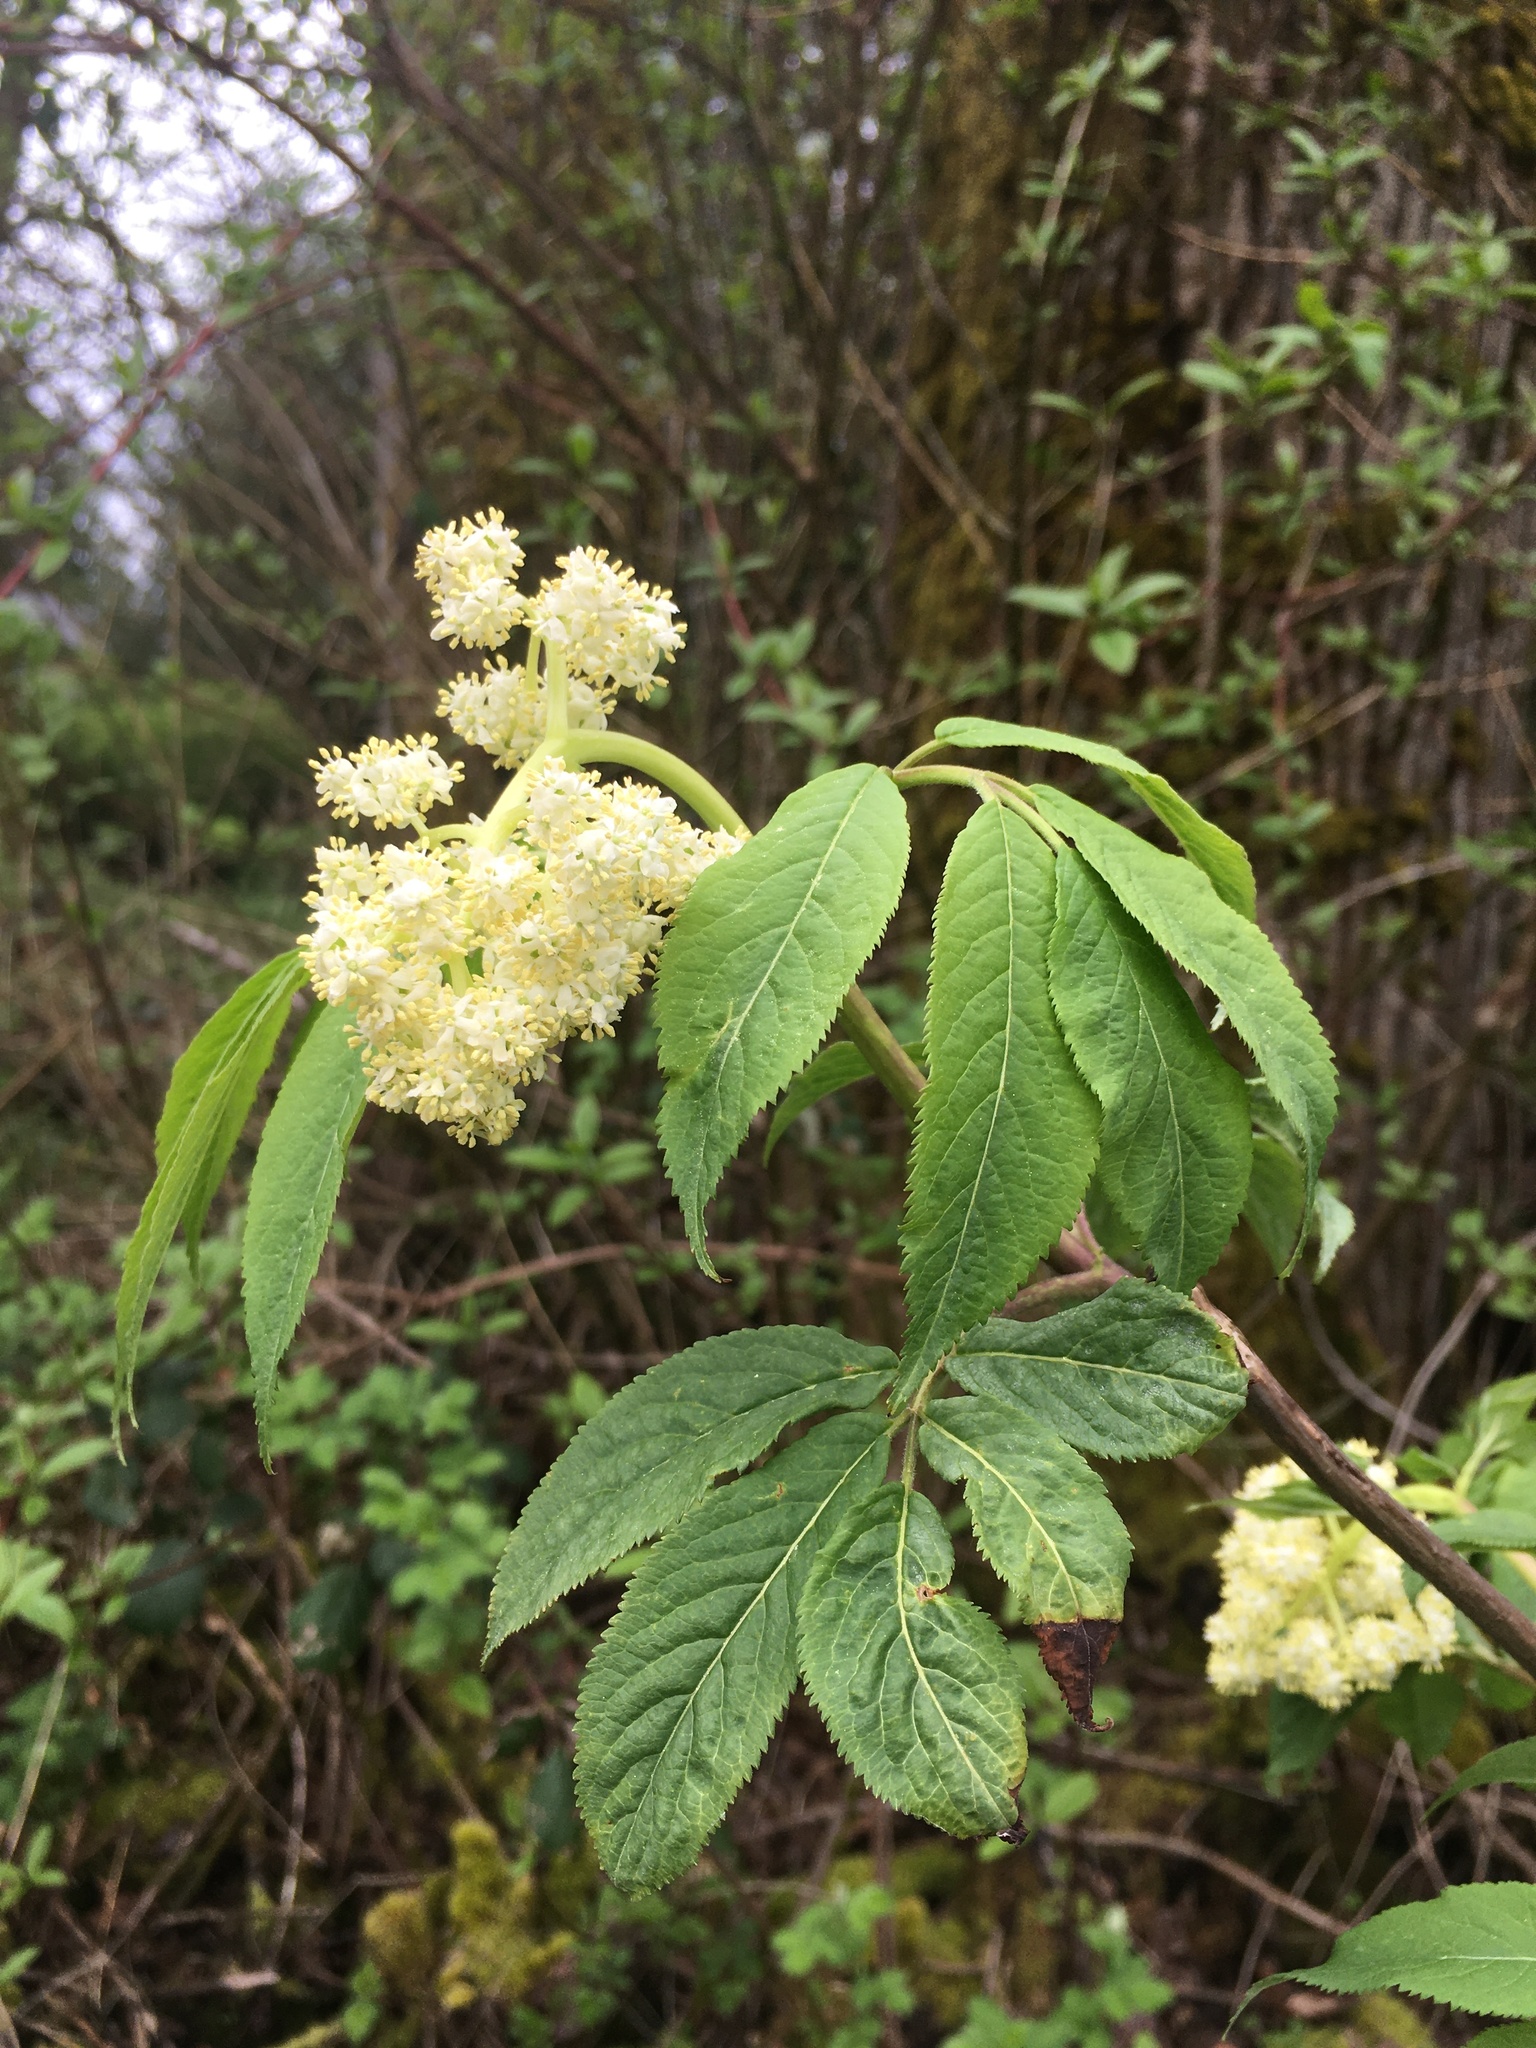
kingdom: Plantae
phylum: Tracheophyta
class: Magnoliopsida
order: Dipsacales
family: Viburnaceae
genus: Sambucus
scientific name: Sambucus racemosa
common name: Red-berried elder
